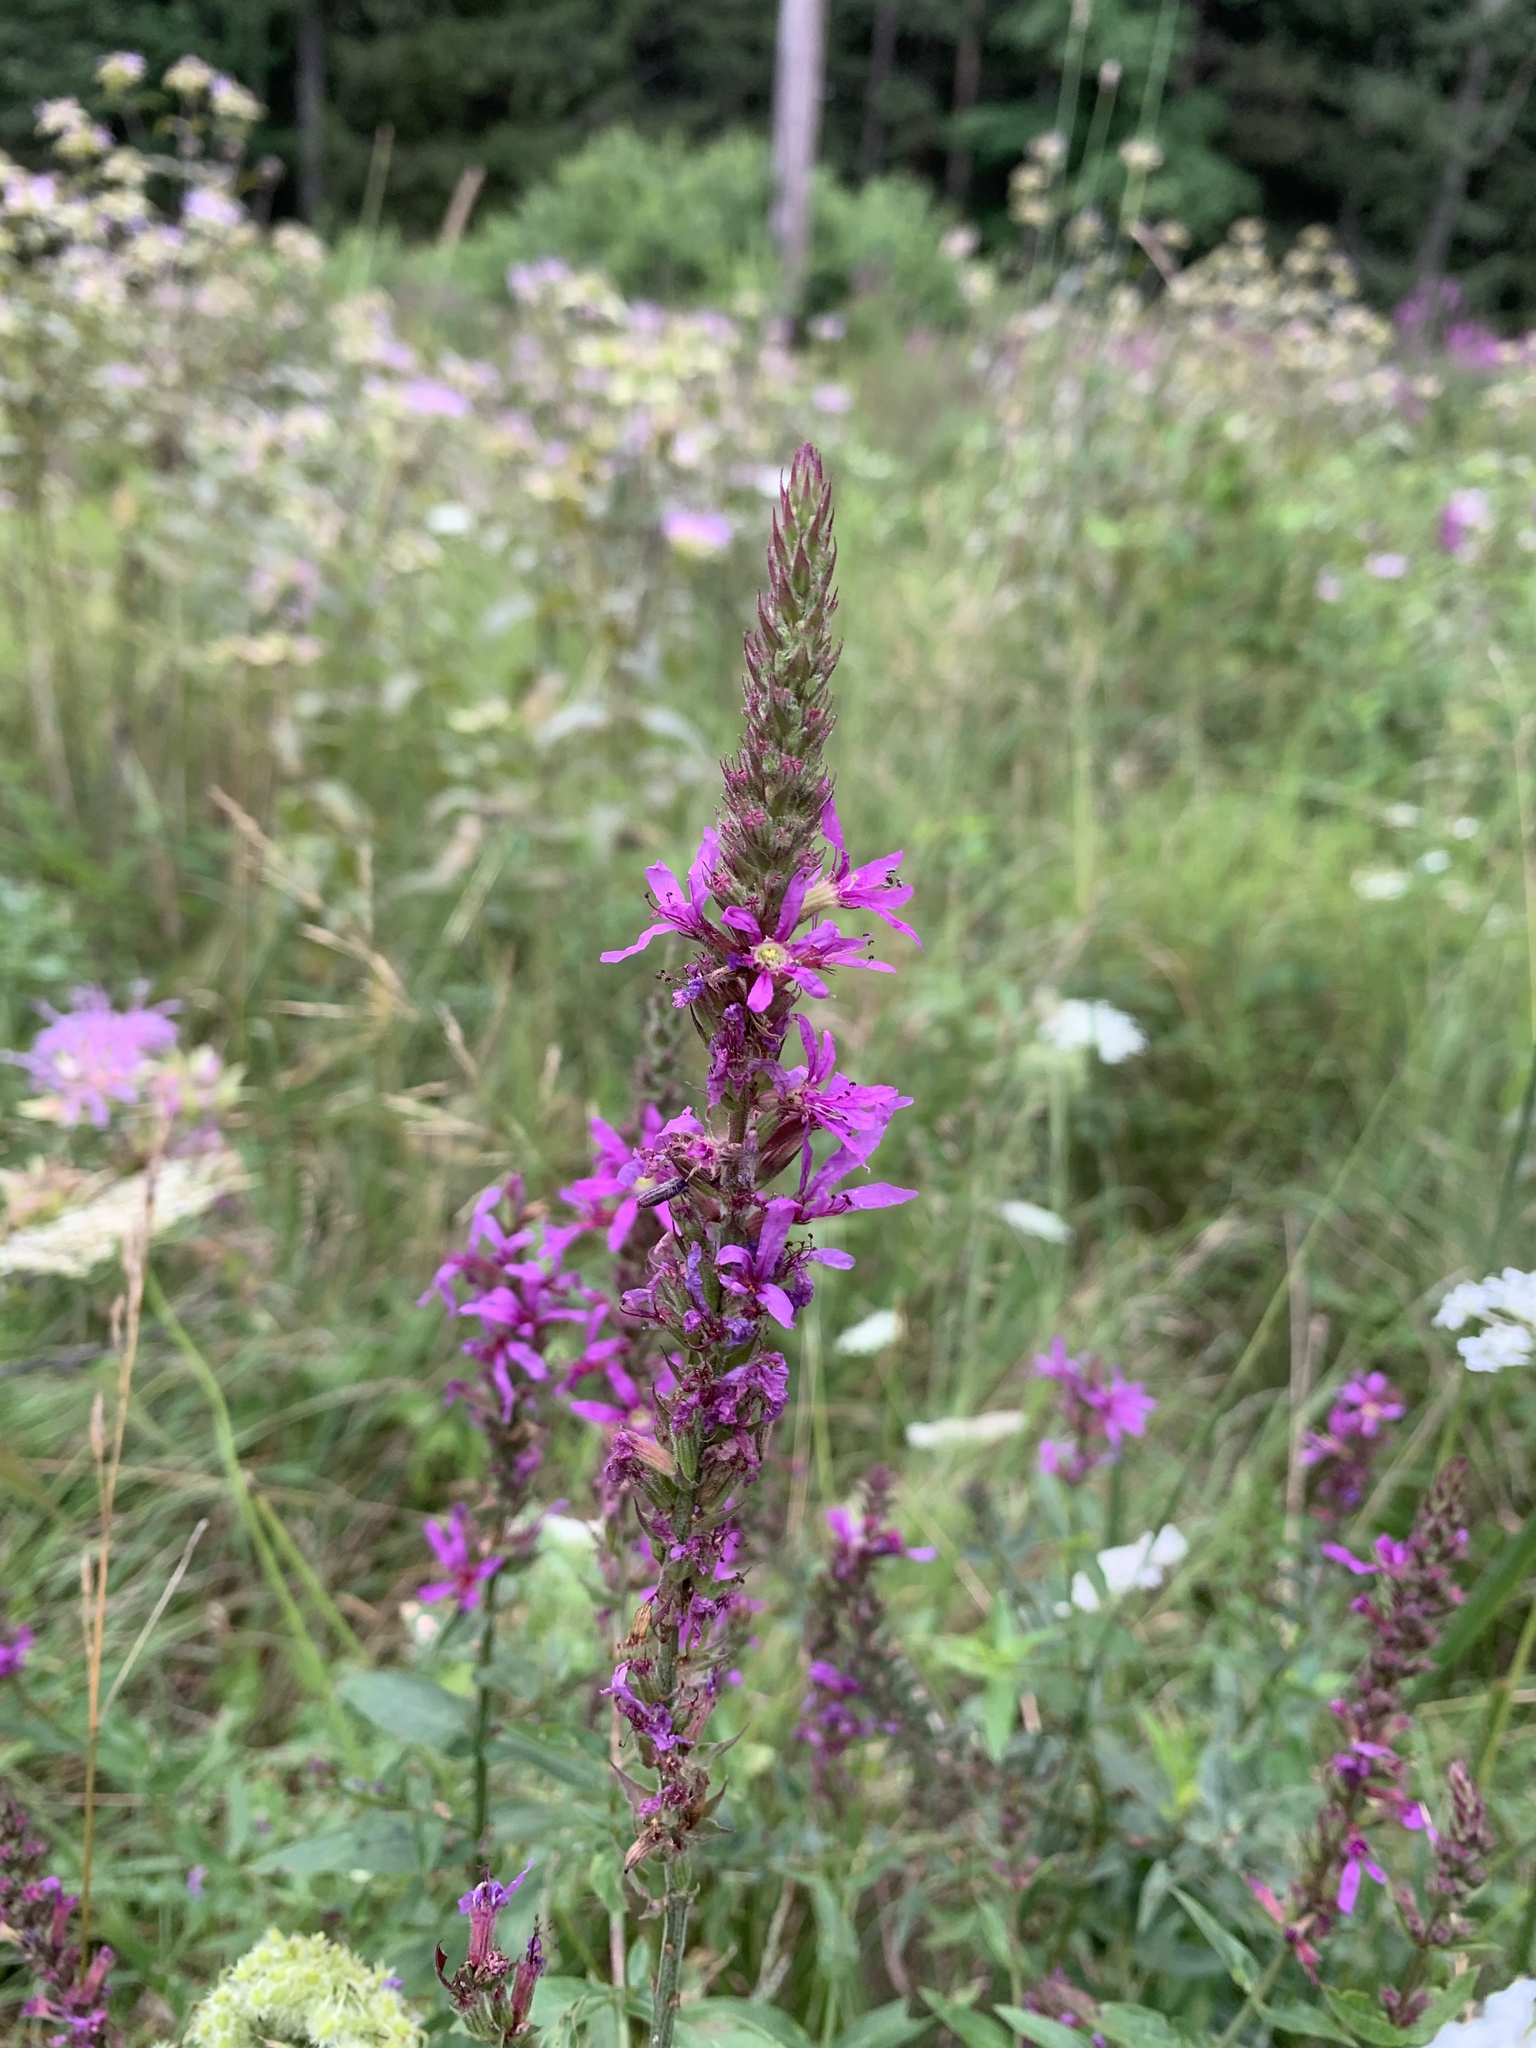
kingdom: Plantae
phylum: Tracheophyta
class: Magnoliopsida
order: Myrtales
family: Lythraceae
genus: Lythrum
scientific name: Lythrum salicaria
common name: Purple loosestrife
